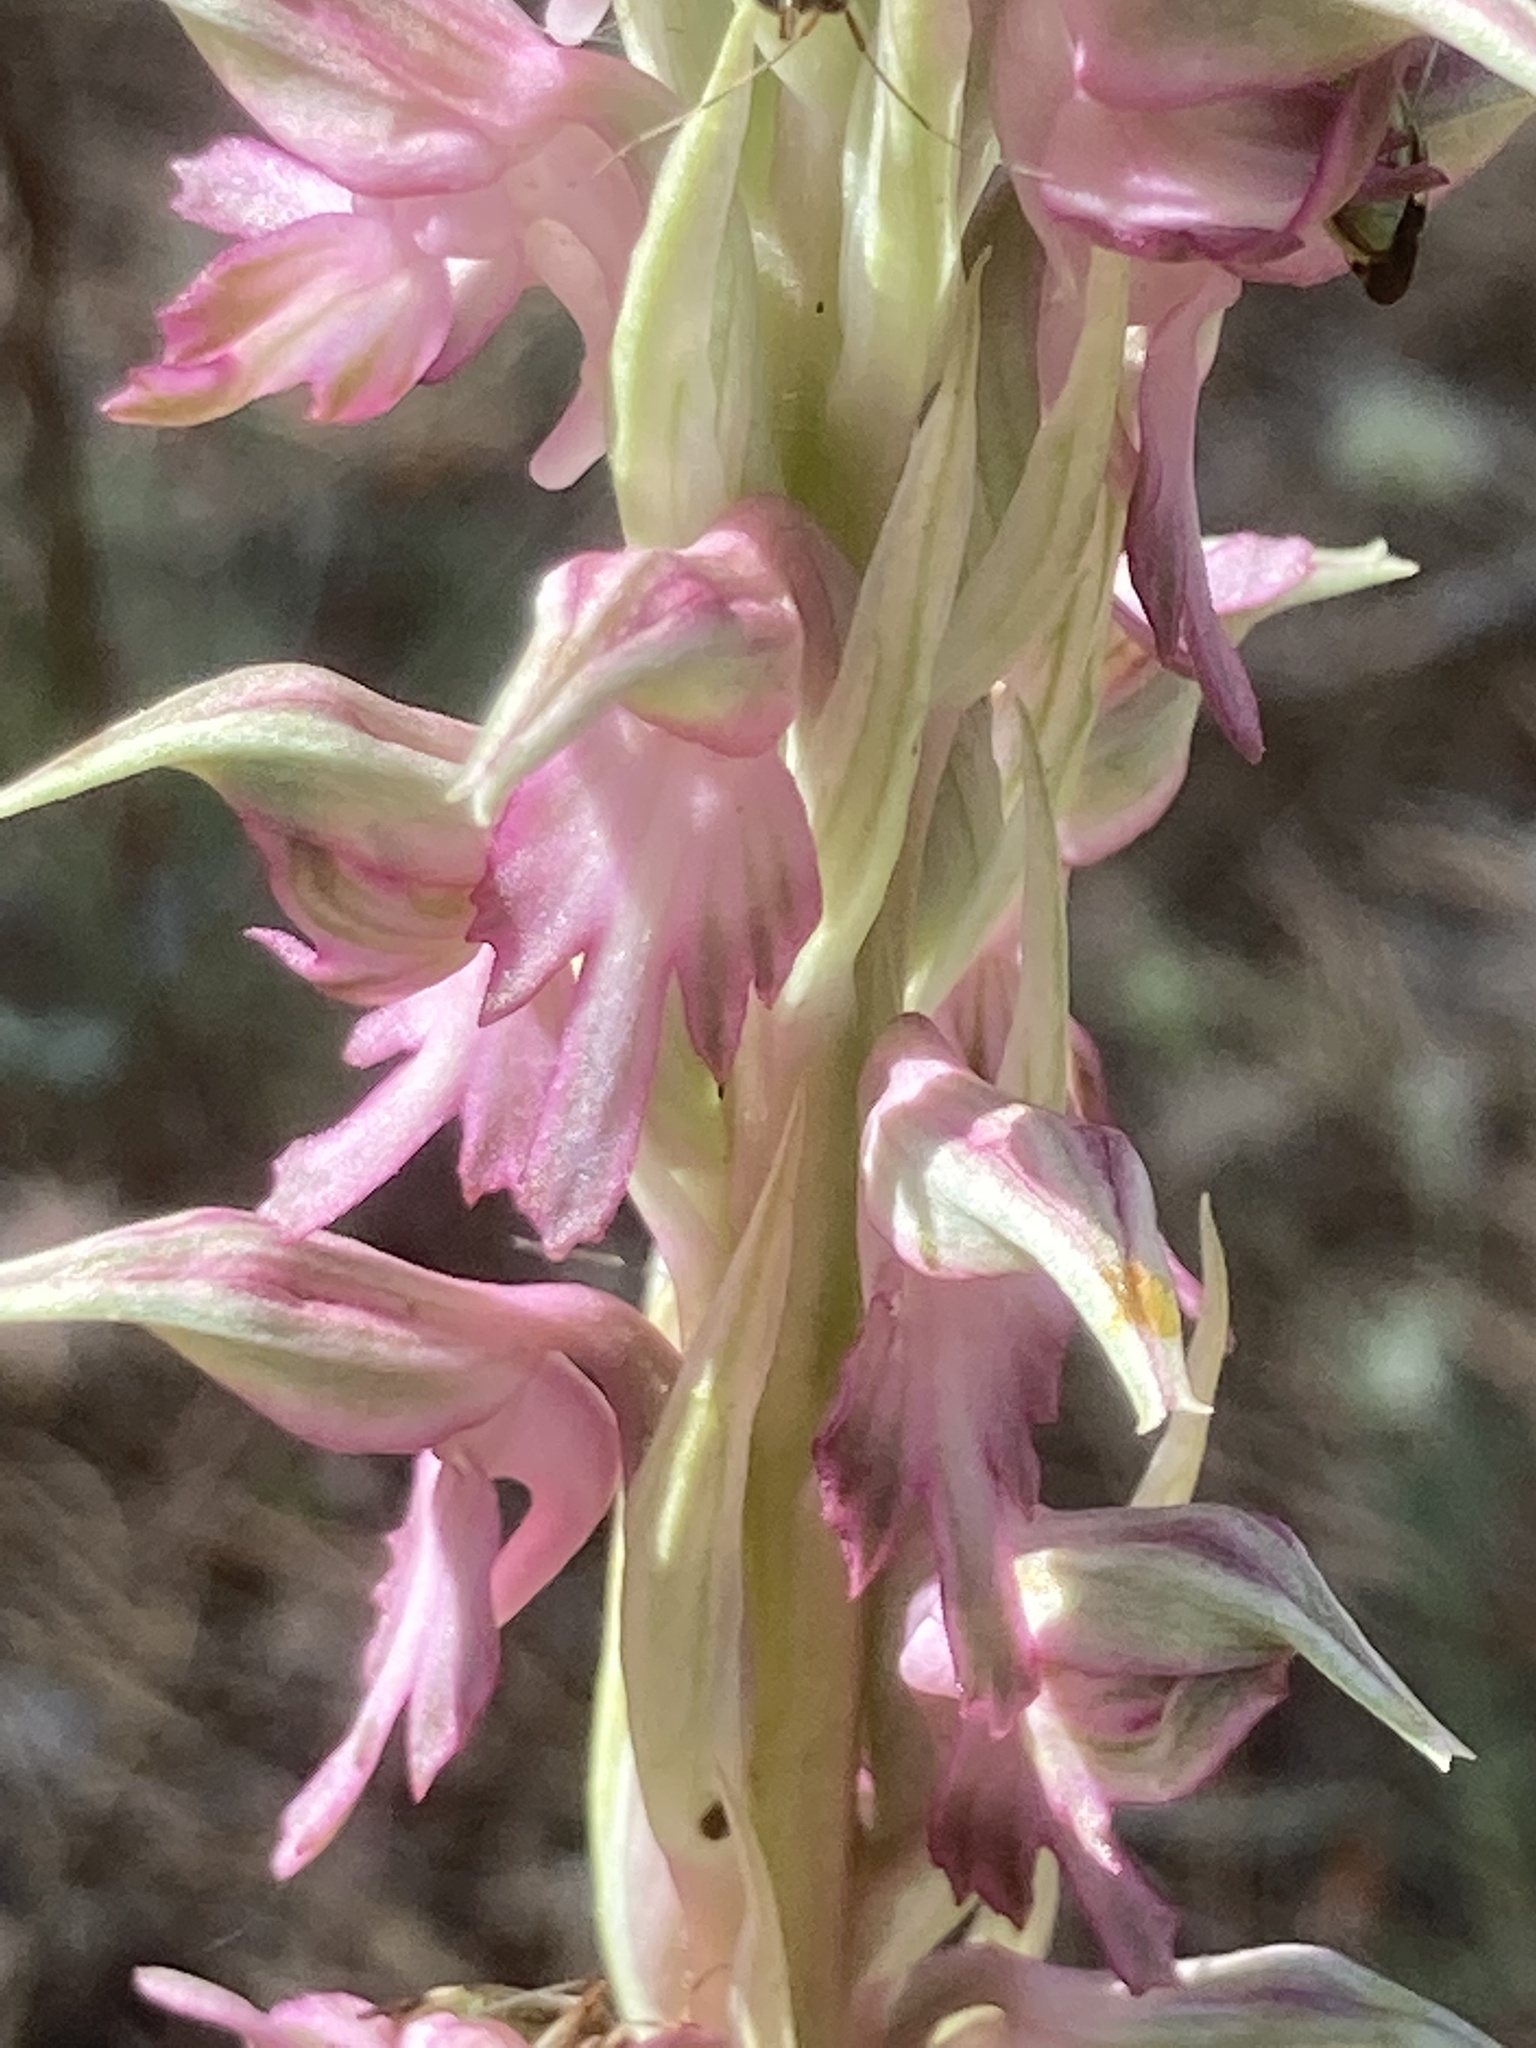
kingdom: Plantae
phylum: Tracheophyta
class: Liliopsida
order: Asparagales
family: Orchidaceae
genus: Anacamptis
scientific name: Anacamptis sancta
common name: Holy orchid
